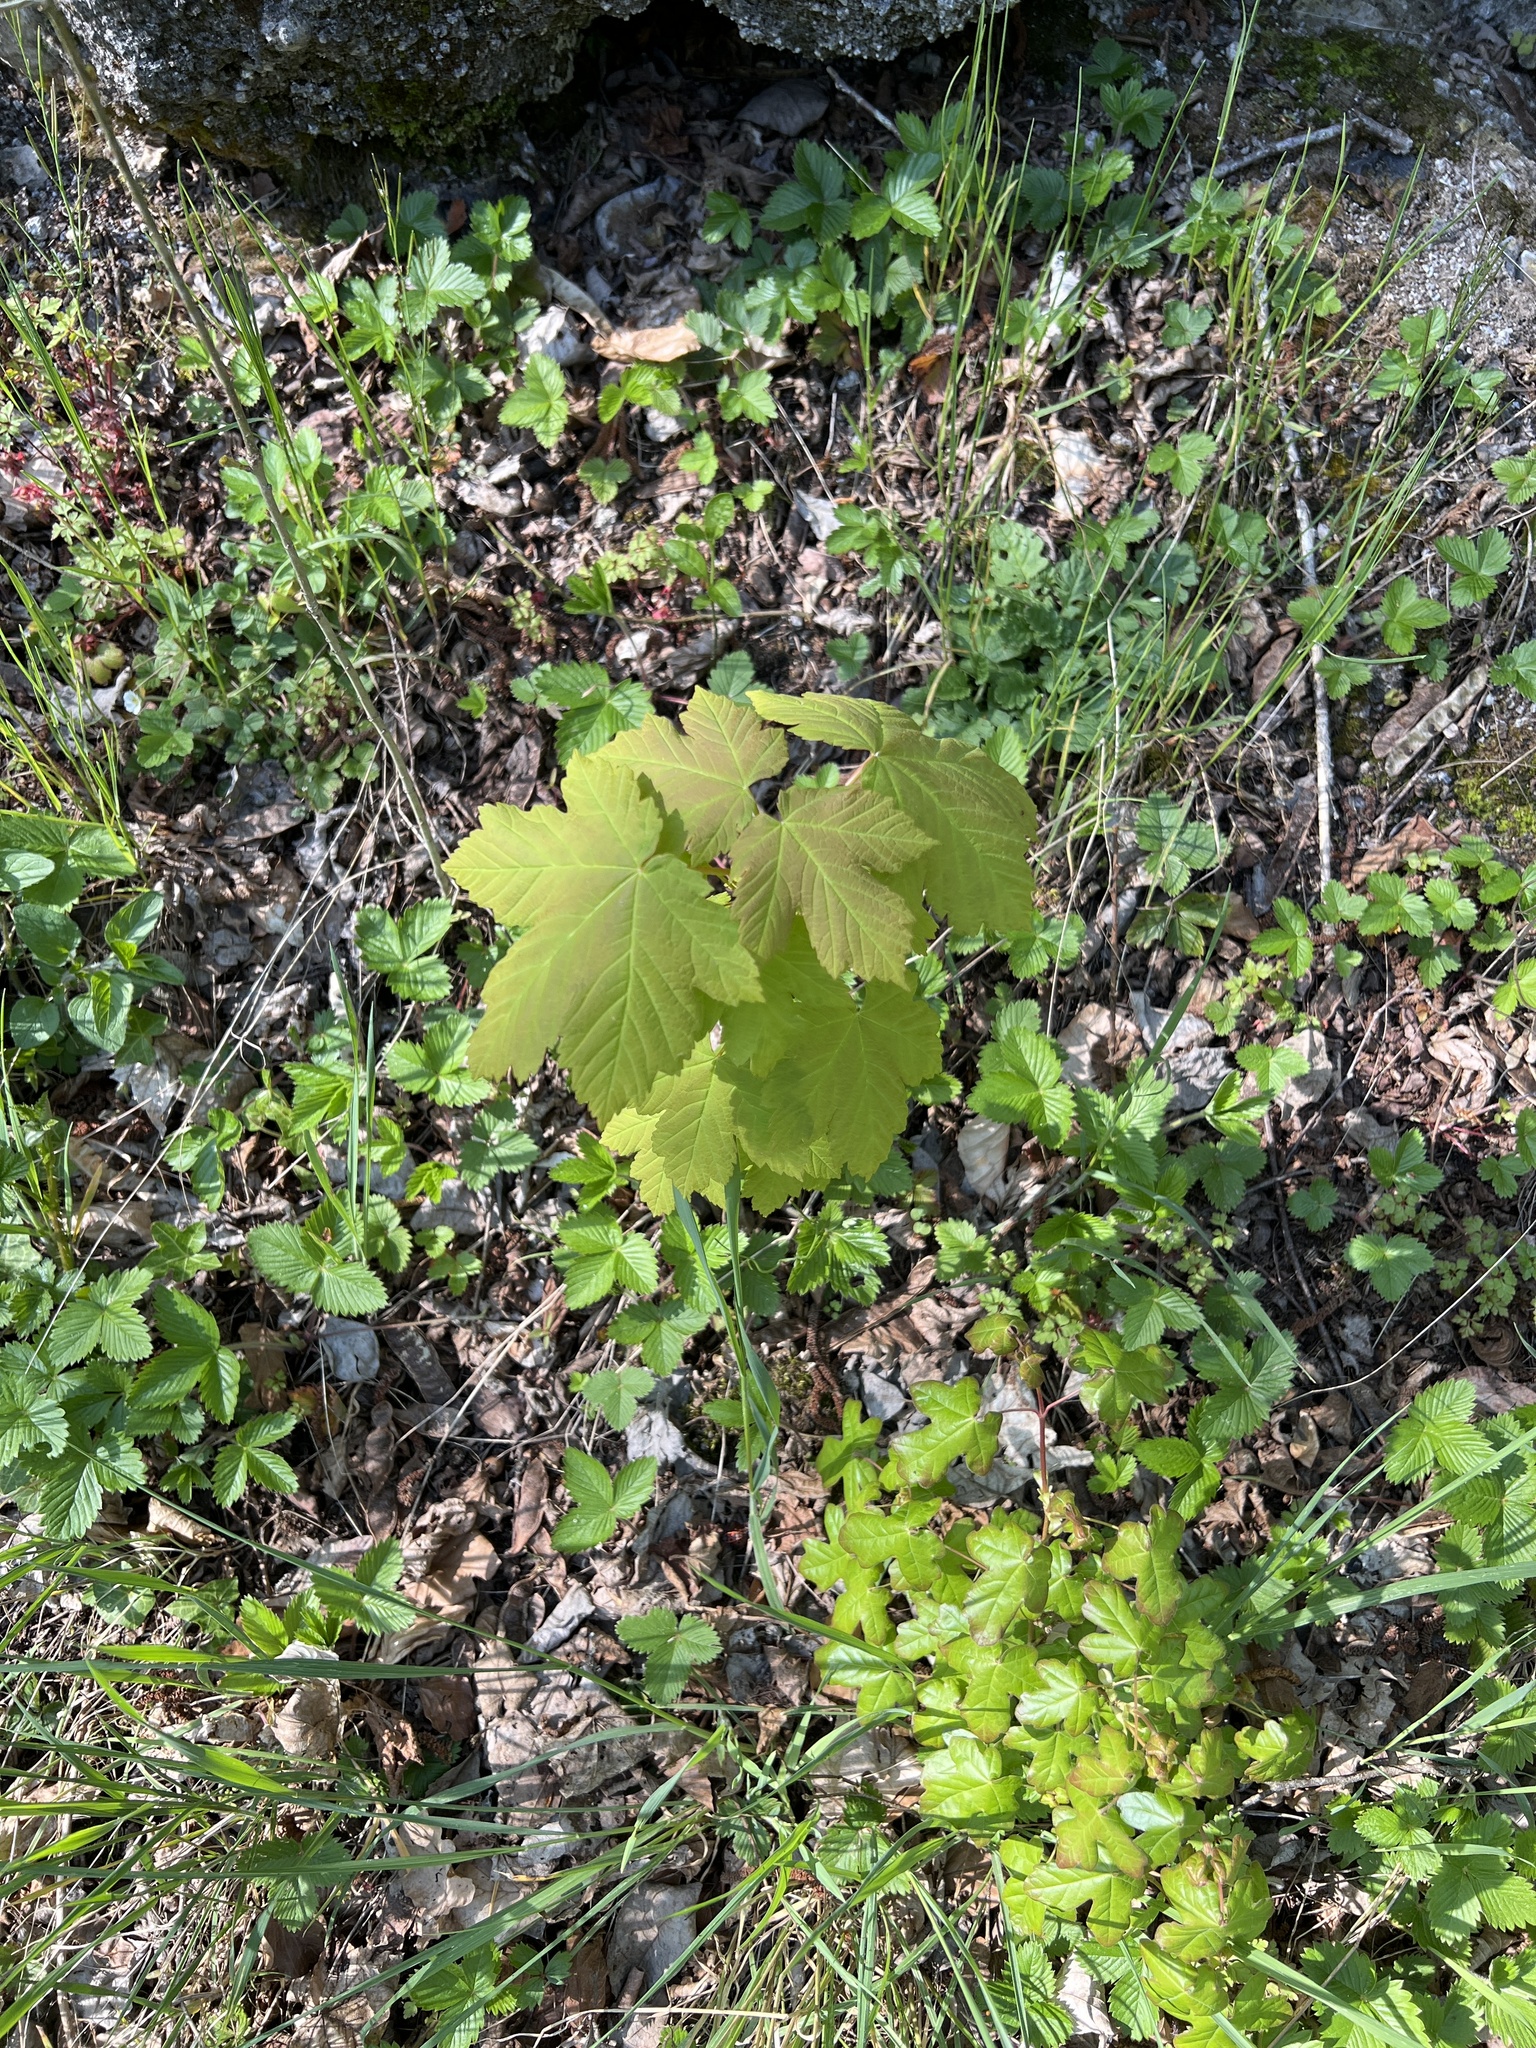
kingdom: Plantae
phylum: Tracheophyta
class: Magnoliopsida
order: Sapindales
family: Sapindaceae
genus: Acer
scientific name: Acer pseudoplatanus
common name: Sycamore
